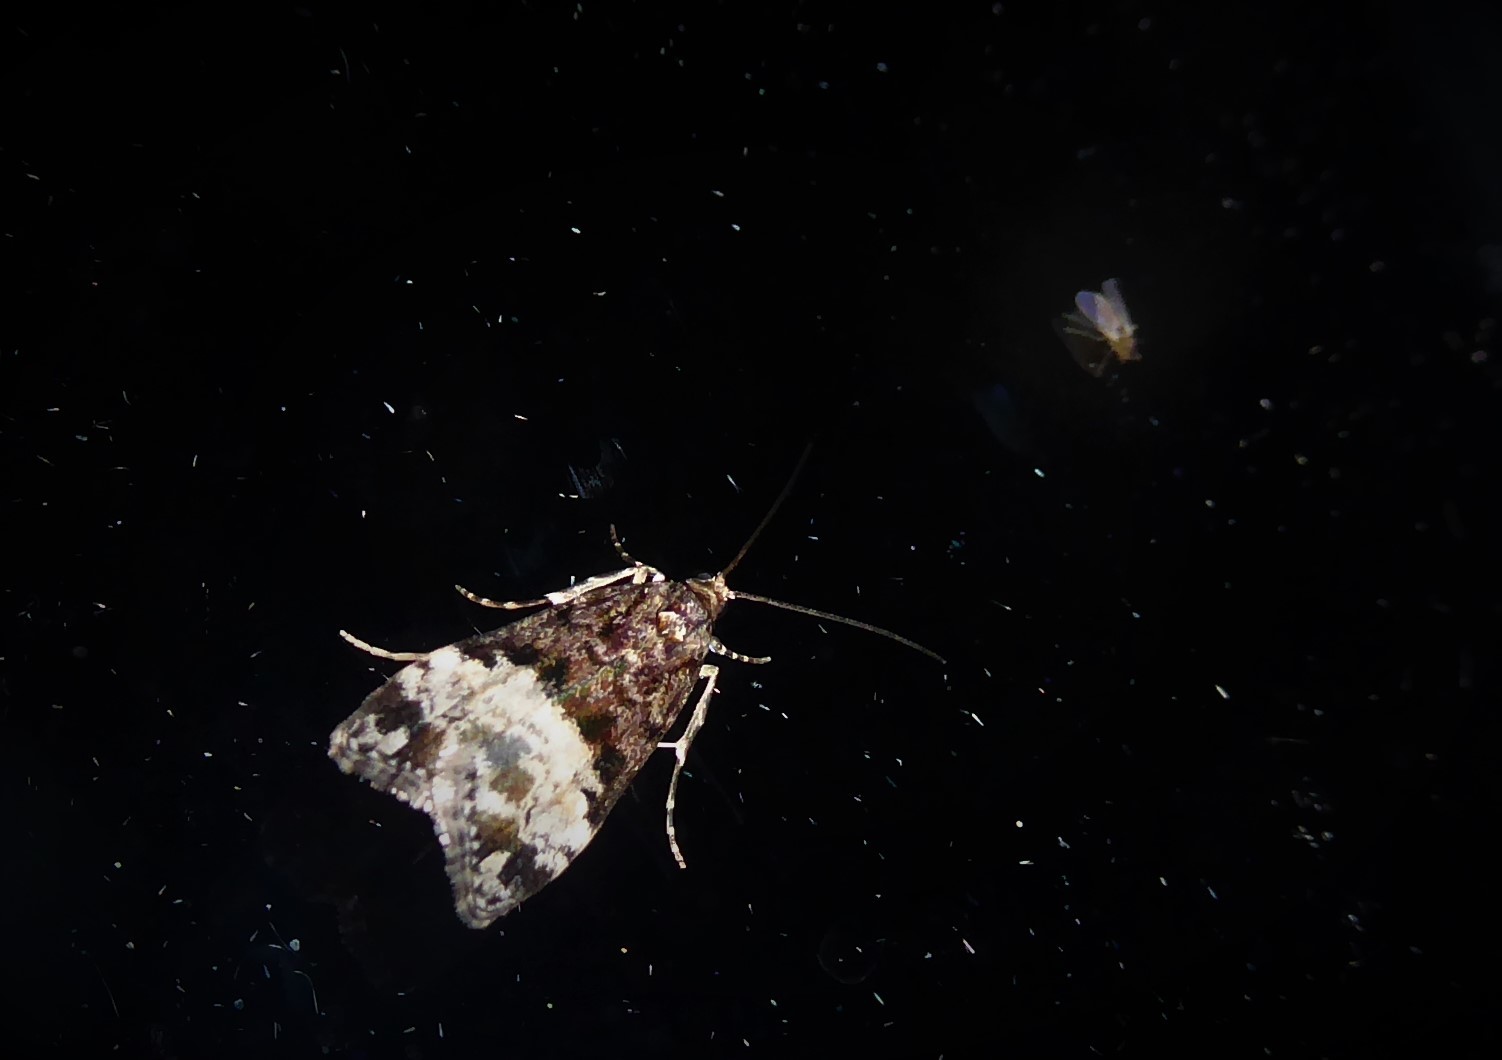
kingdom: Animalia
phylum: Arthropoda
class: Insecta
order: Lepidoptera
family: Crambidae
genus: Scoparia
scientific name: Scoparia minusculalis
